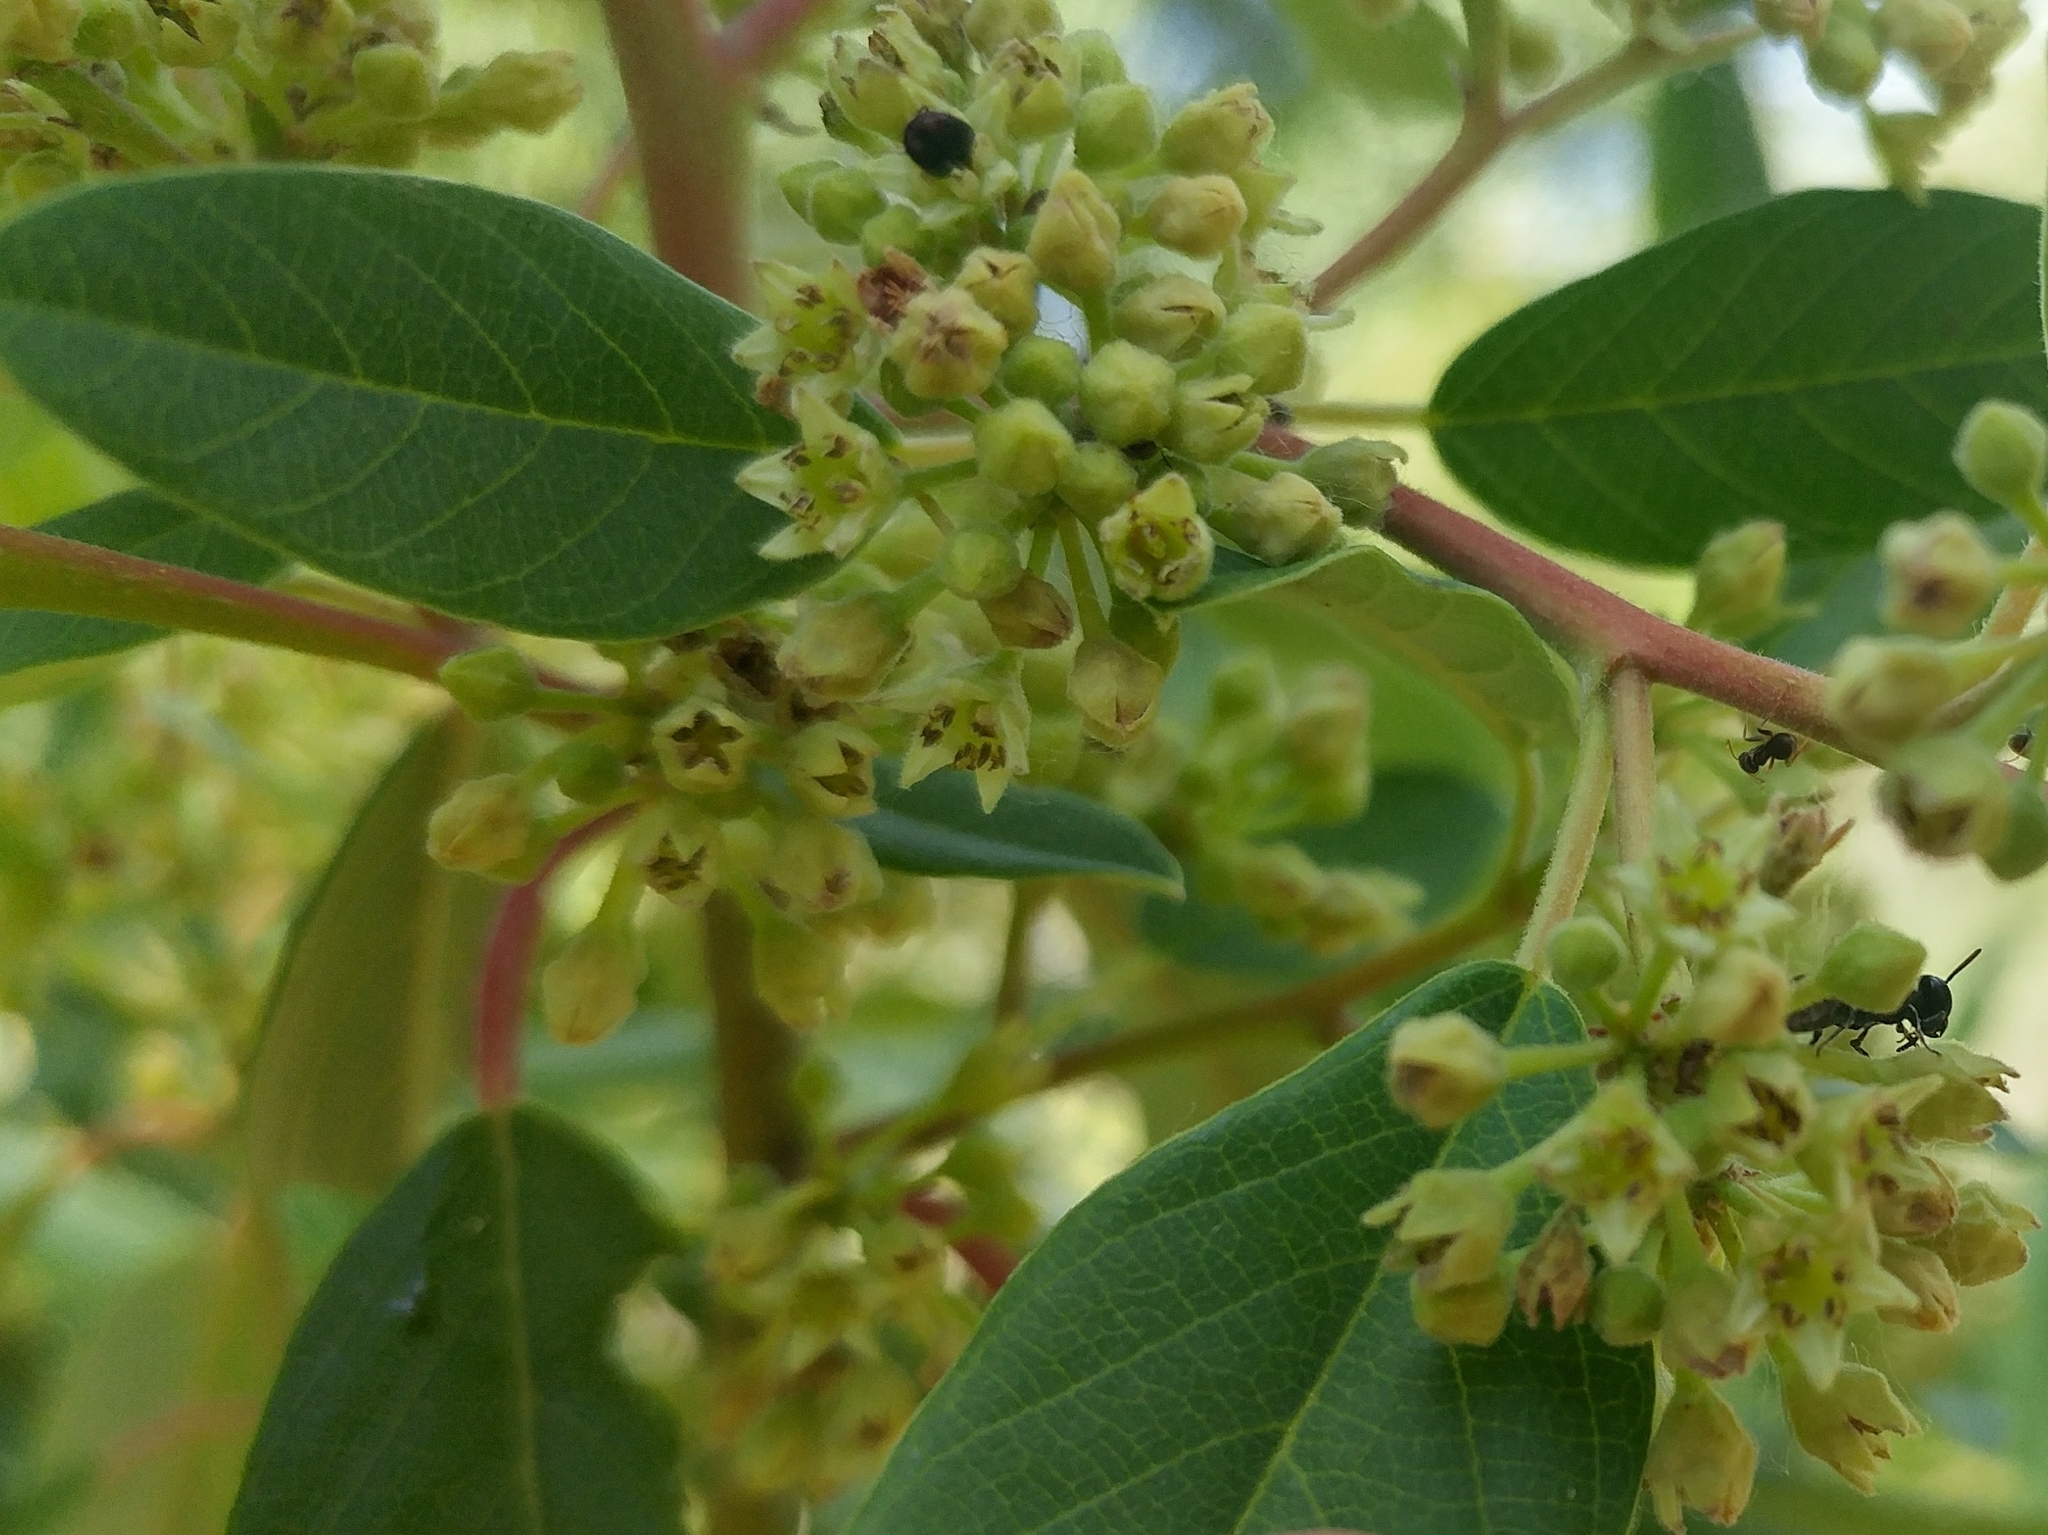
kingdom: Plantae
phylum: Tracheophyta
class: Magnoliopsida
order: Rosales
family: Rhamnaceae
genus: Frangula
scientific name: Frangula californica
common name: California buckthorn
